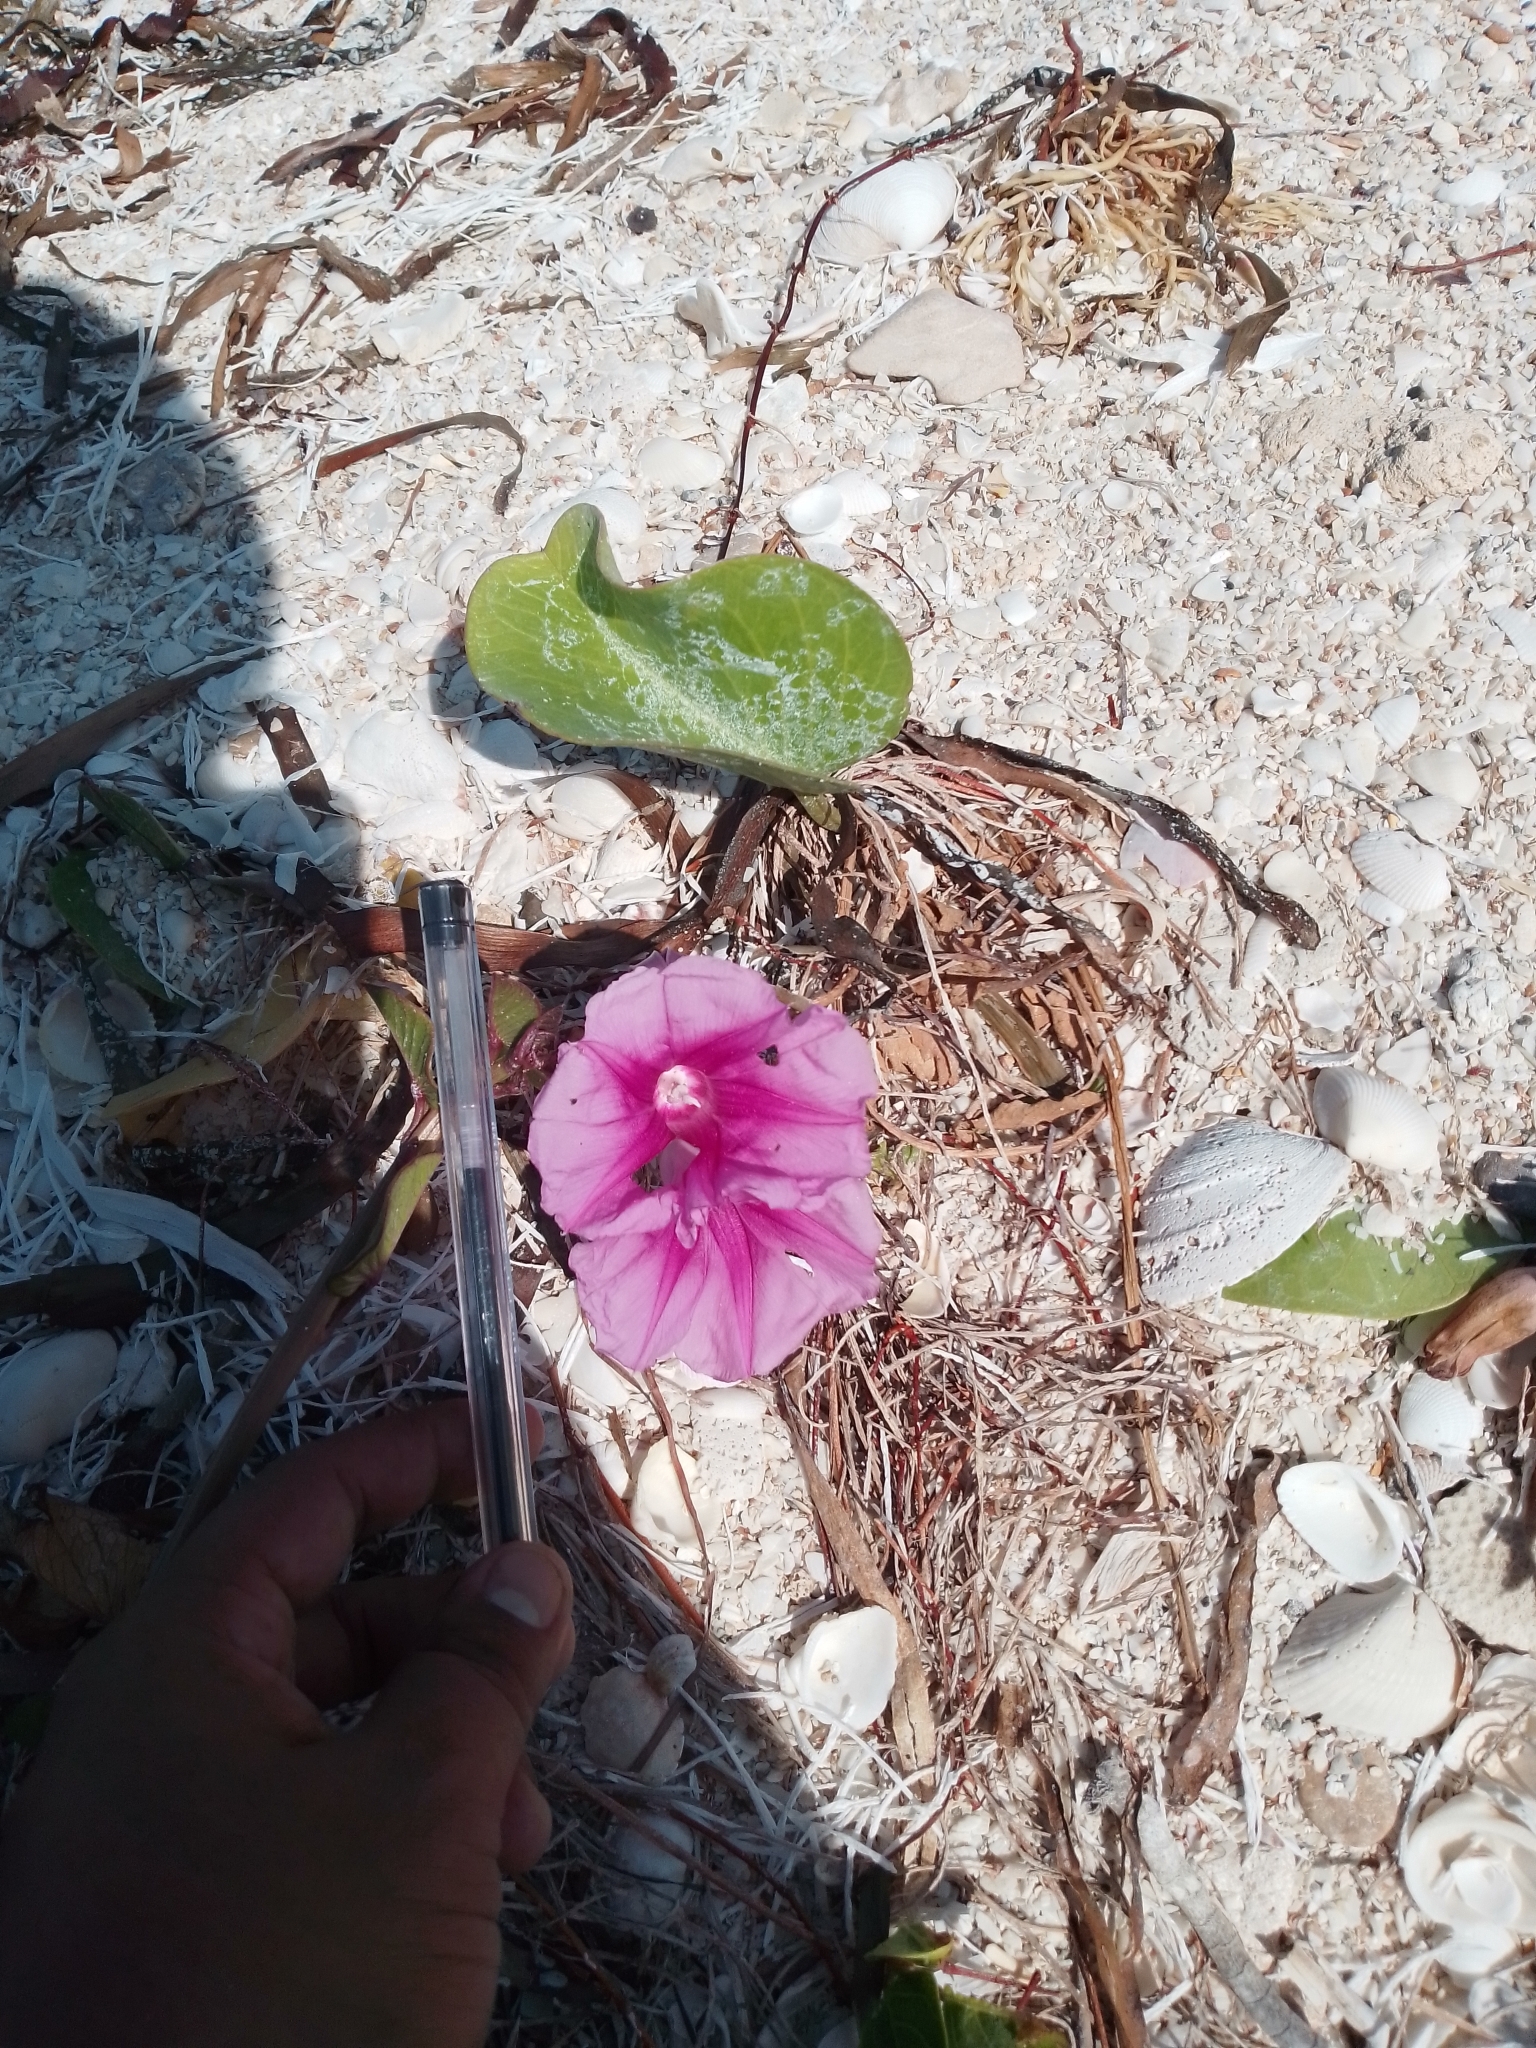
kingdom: Plantae
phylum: Tracheophyta
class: Magnoliopsida
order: Solanales
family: Convolvulaceae
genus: Ipomoea
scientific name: Ipomoea pes-caprae
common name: Beach morning glory
